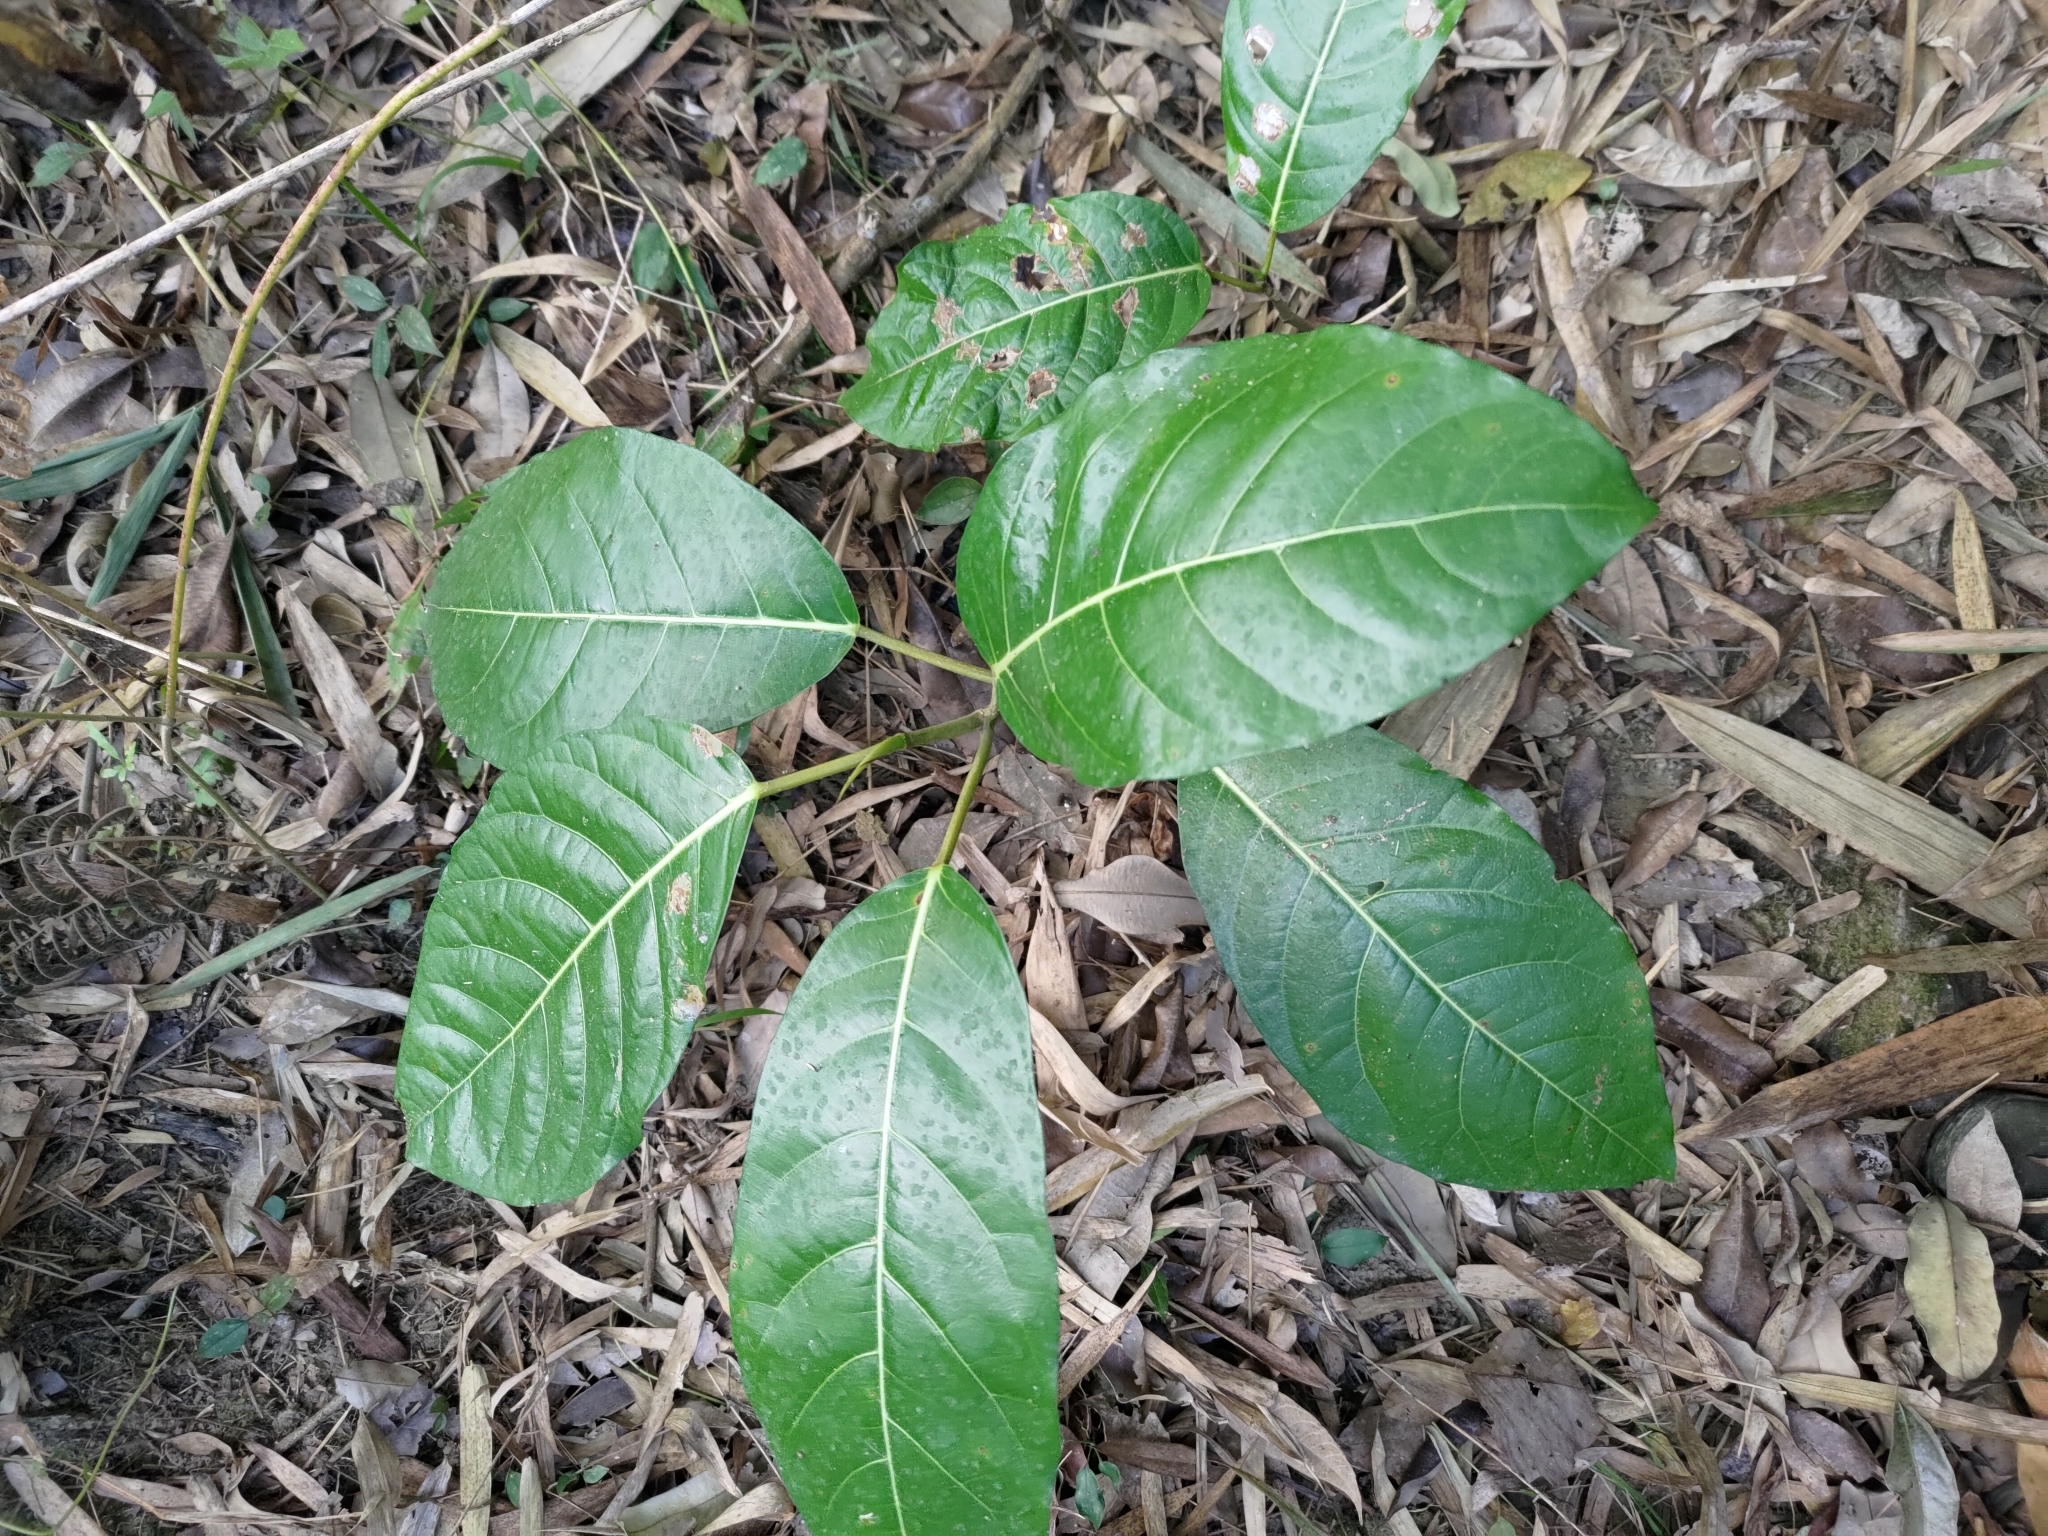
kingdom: Plantae
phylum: Tracheophyta
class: Magnoliopsida
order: Rosales
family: Moraceae
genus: Ficus
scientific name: Ficus septica
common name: Septic fig
